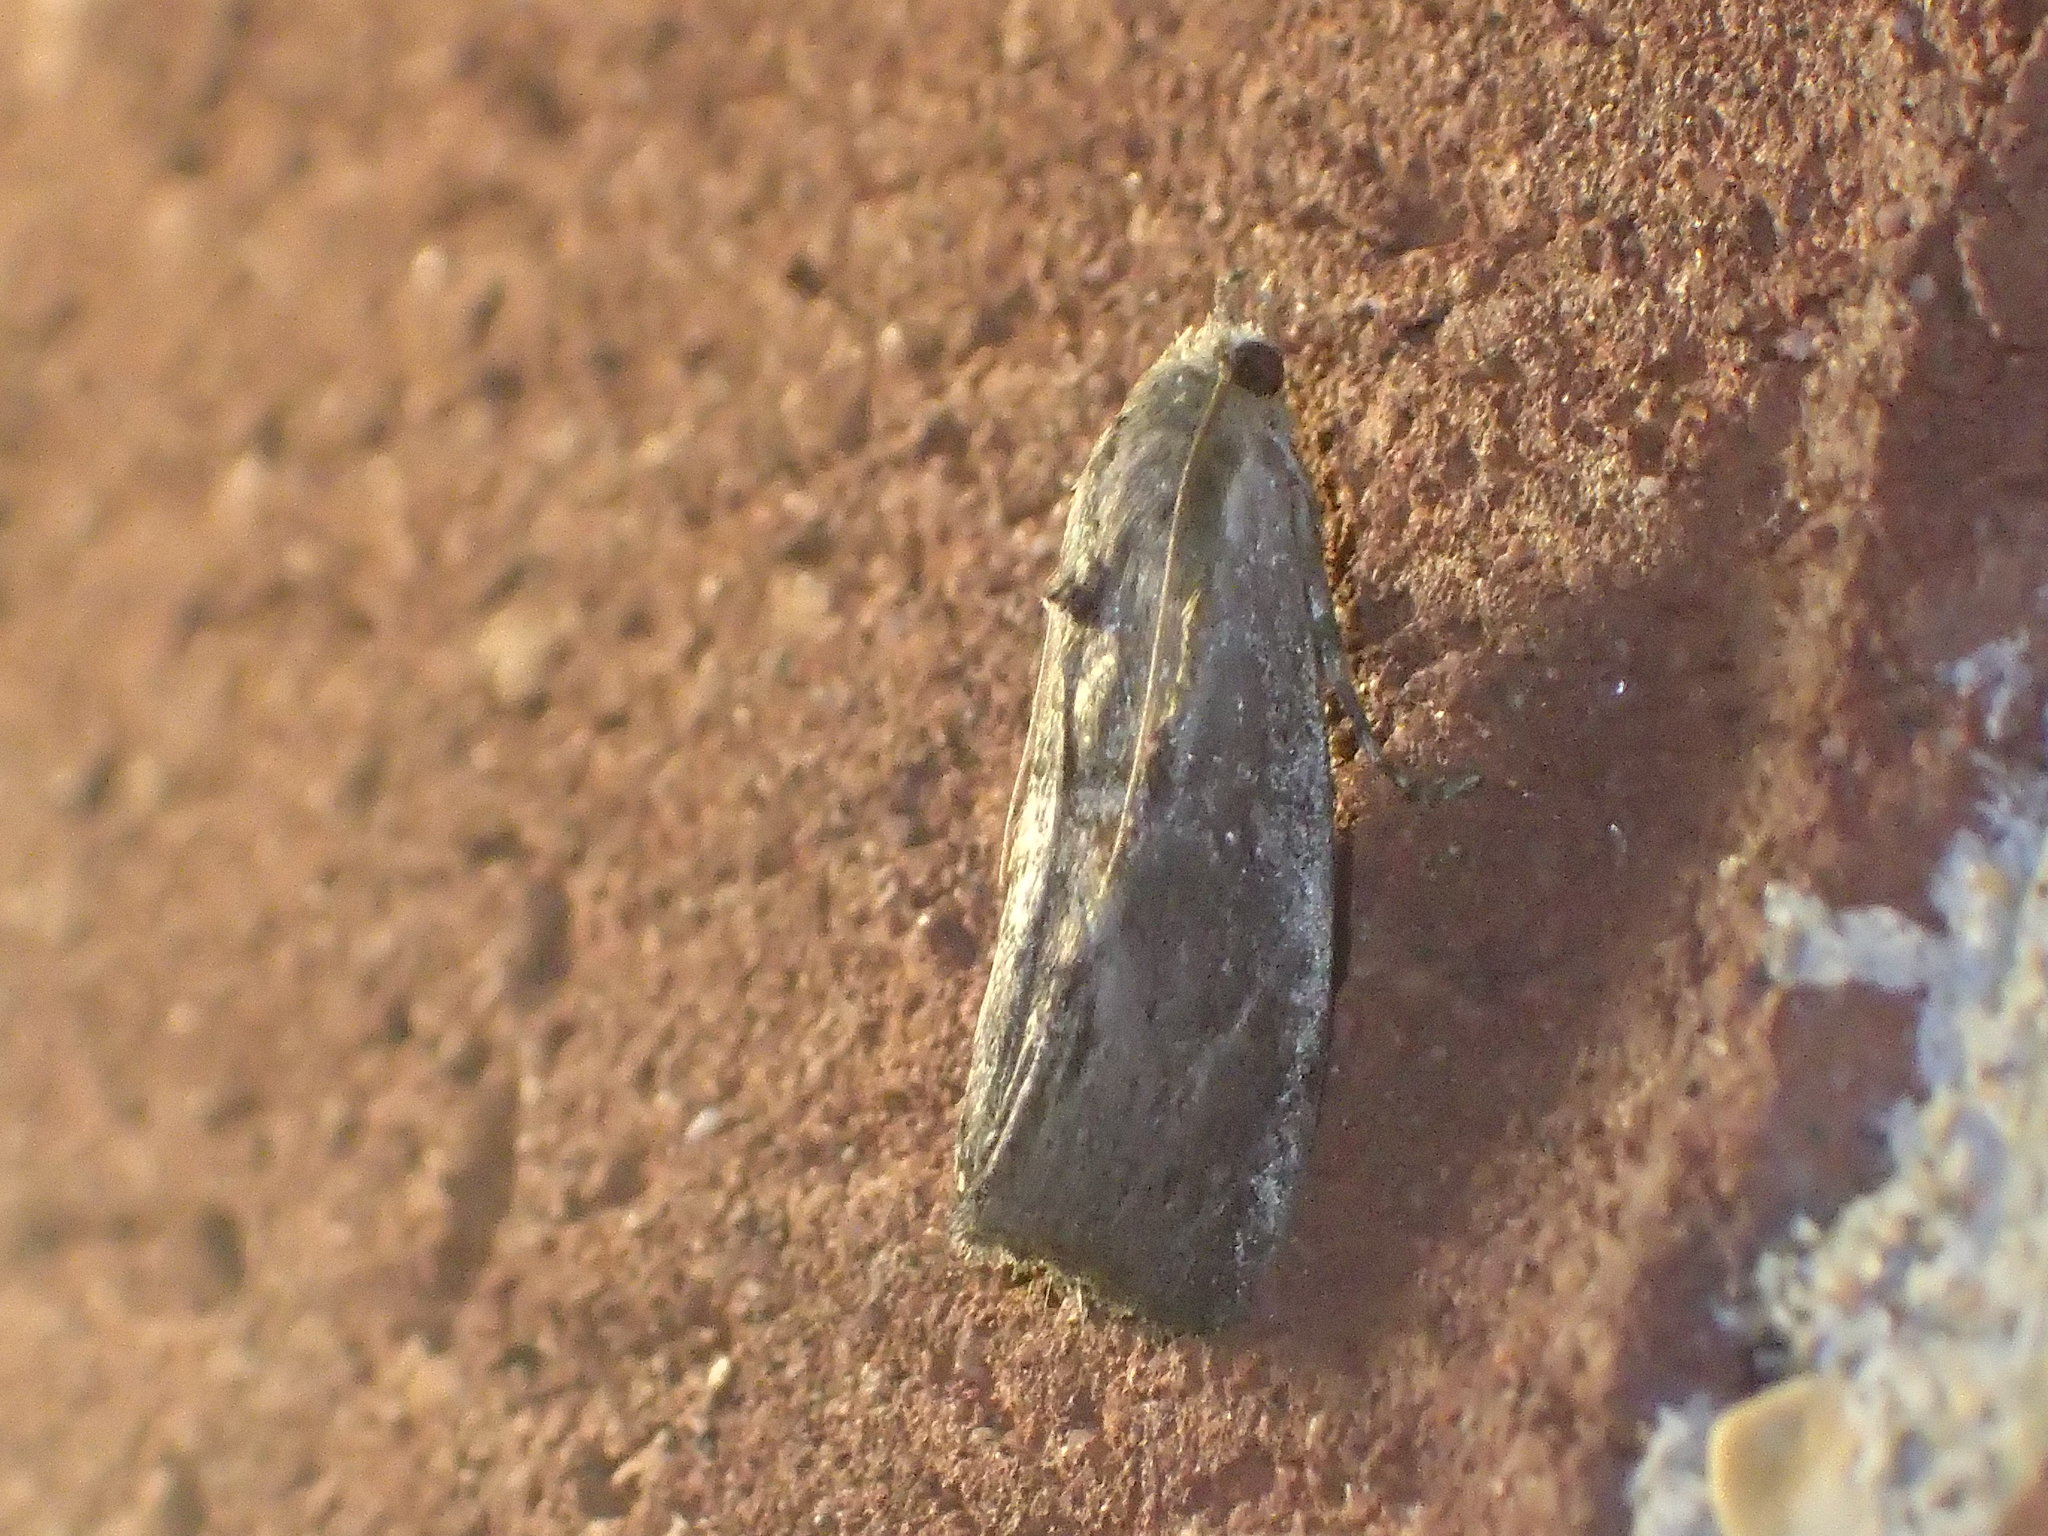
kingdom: Animalia
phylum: Arthropoda
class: Insecta
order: Lepidoptera
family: Pyralidae
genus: Galleria
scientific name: Galleria mellonella
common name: Greater wax moth
